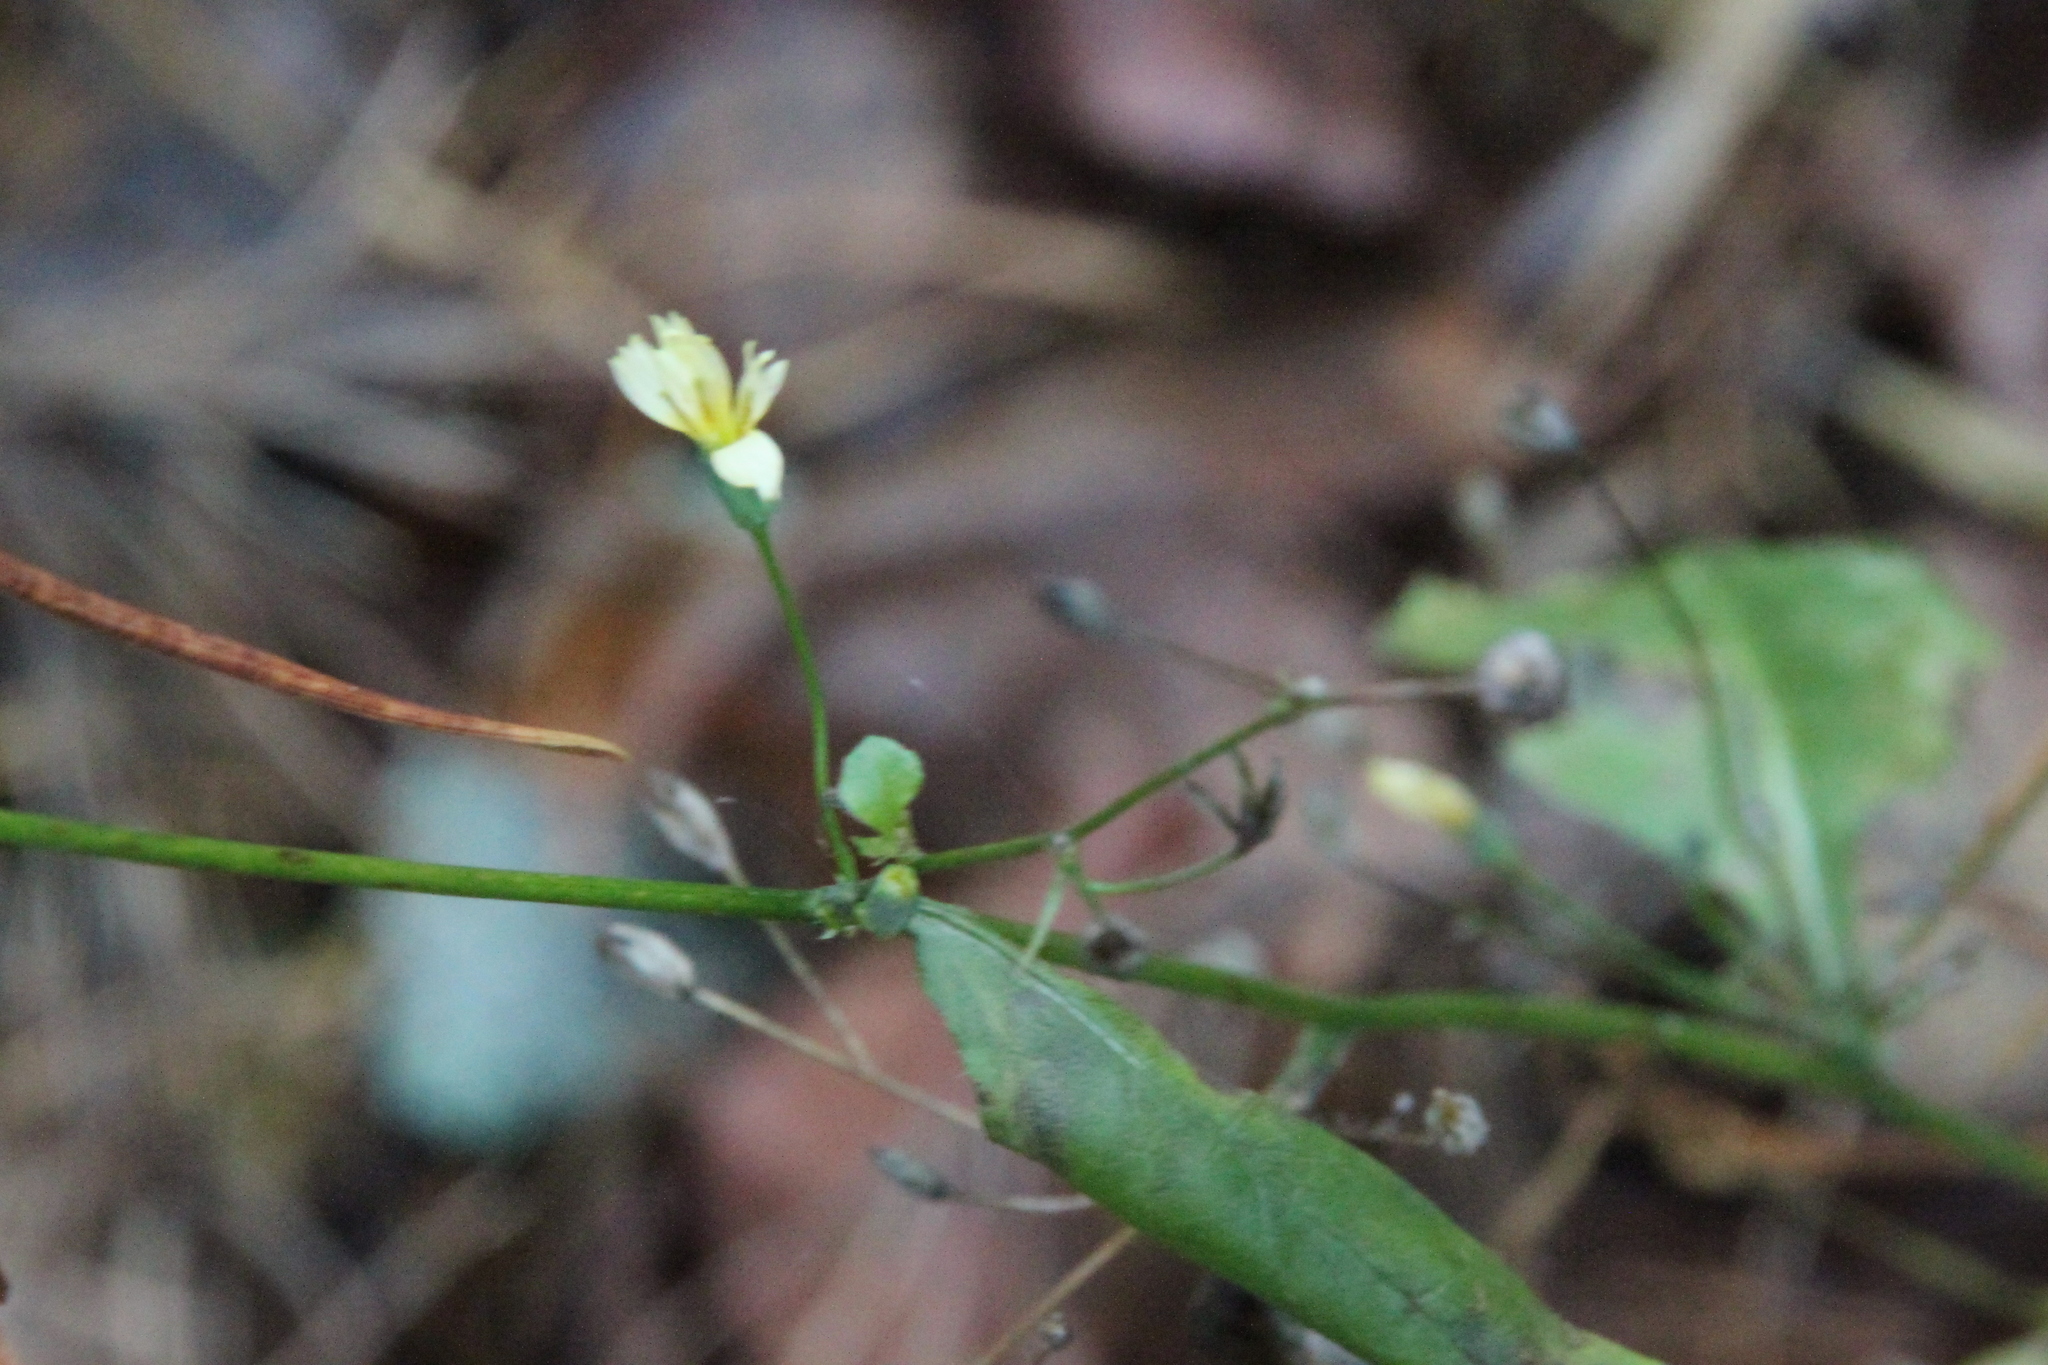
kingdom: Plantae
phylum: Tracheophyta
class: Magnoliopsida
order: Asterales
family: Asteraceae
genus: Lapsana
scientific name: Lapsana communis
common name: Nipplewort
